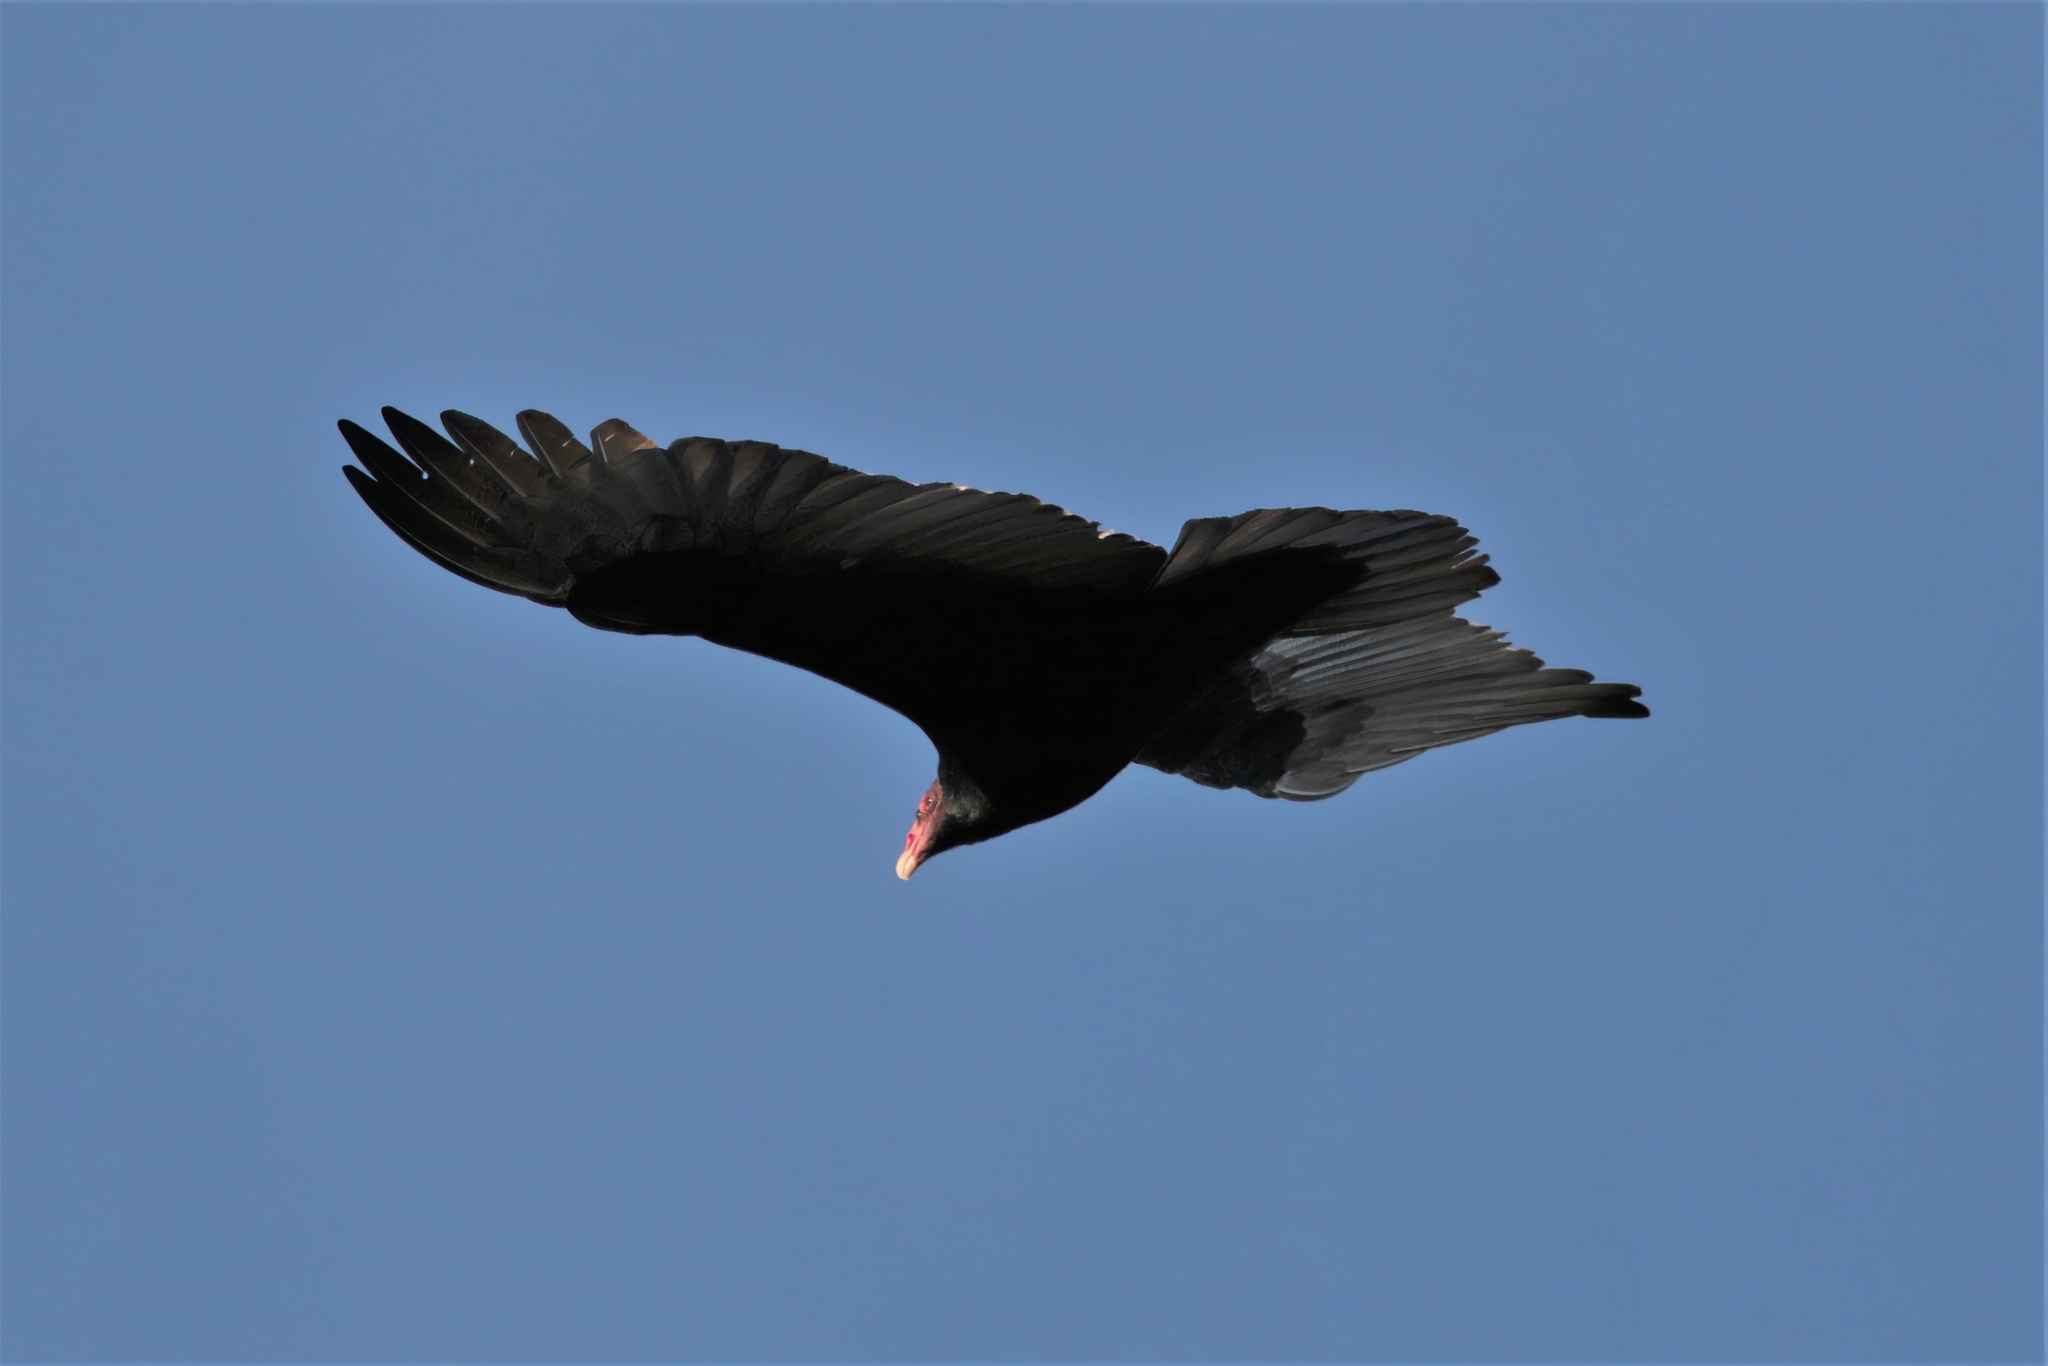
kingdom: Animalia
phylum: Chordata
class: Aves
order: Accipitriformes
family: Cathartidae
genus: Cathartes
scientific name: Cathartes aura
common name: Turkey vulture
